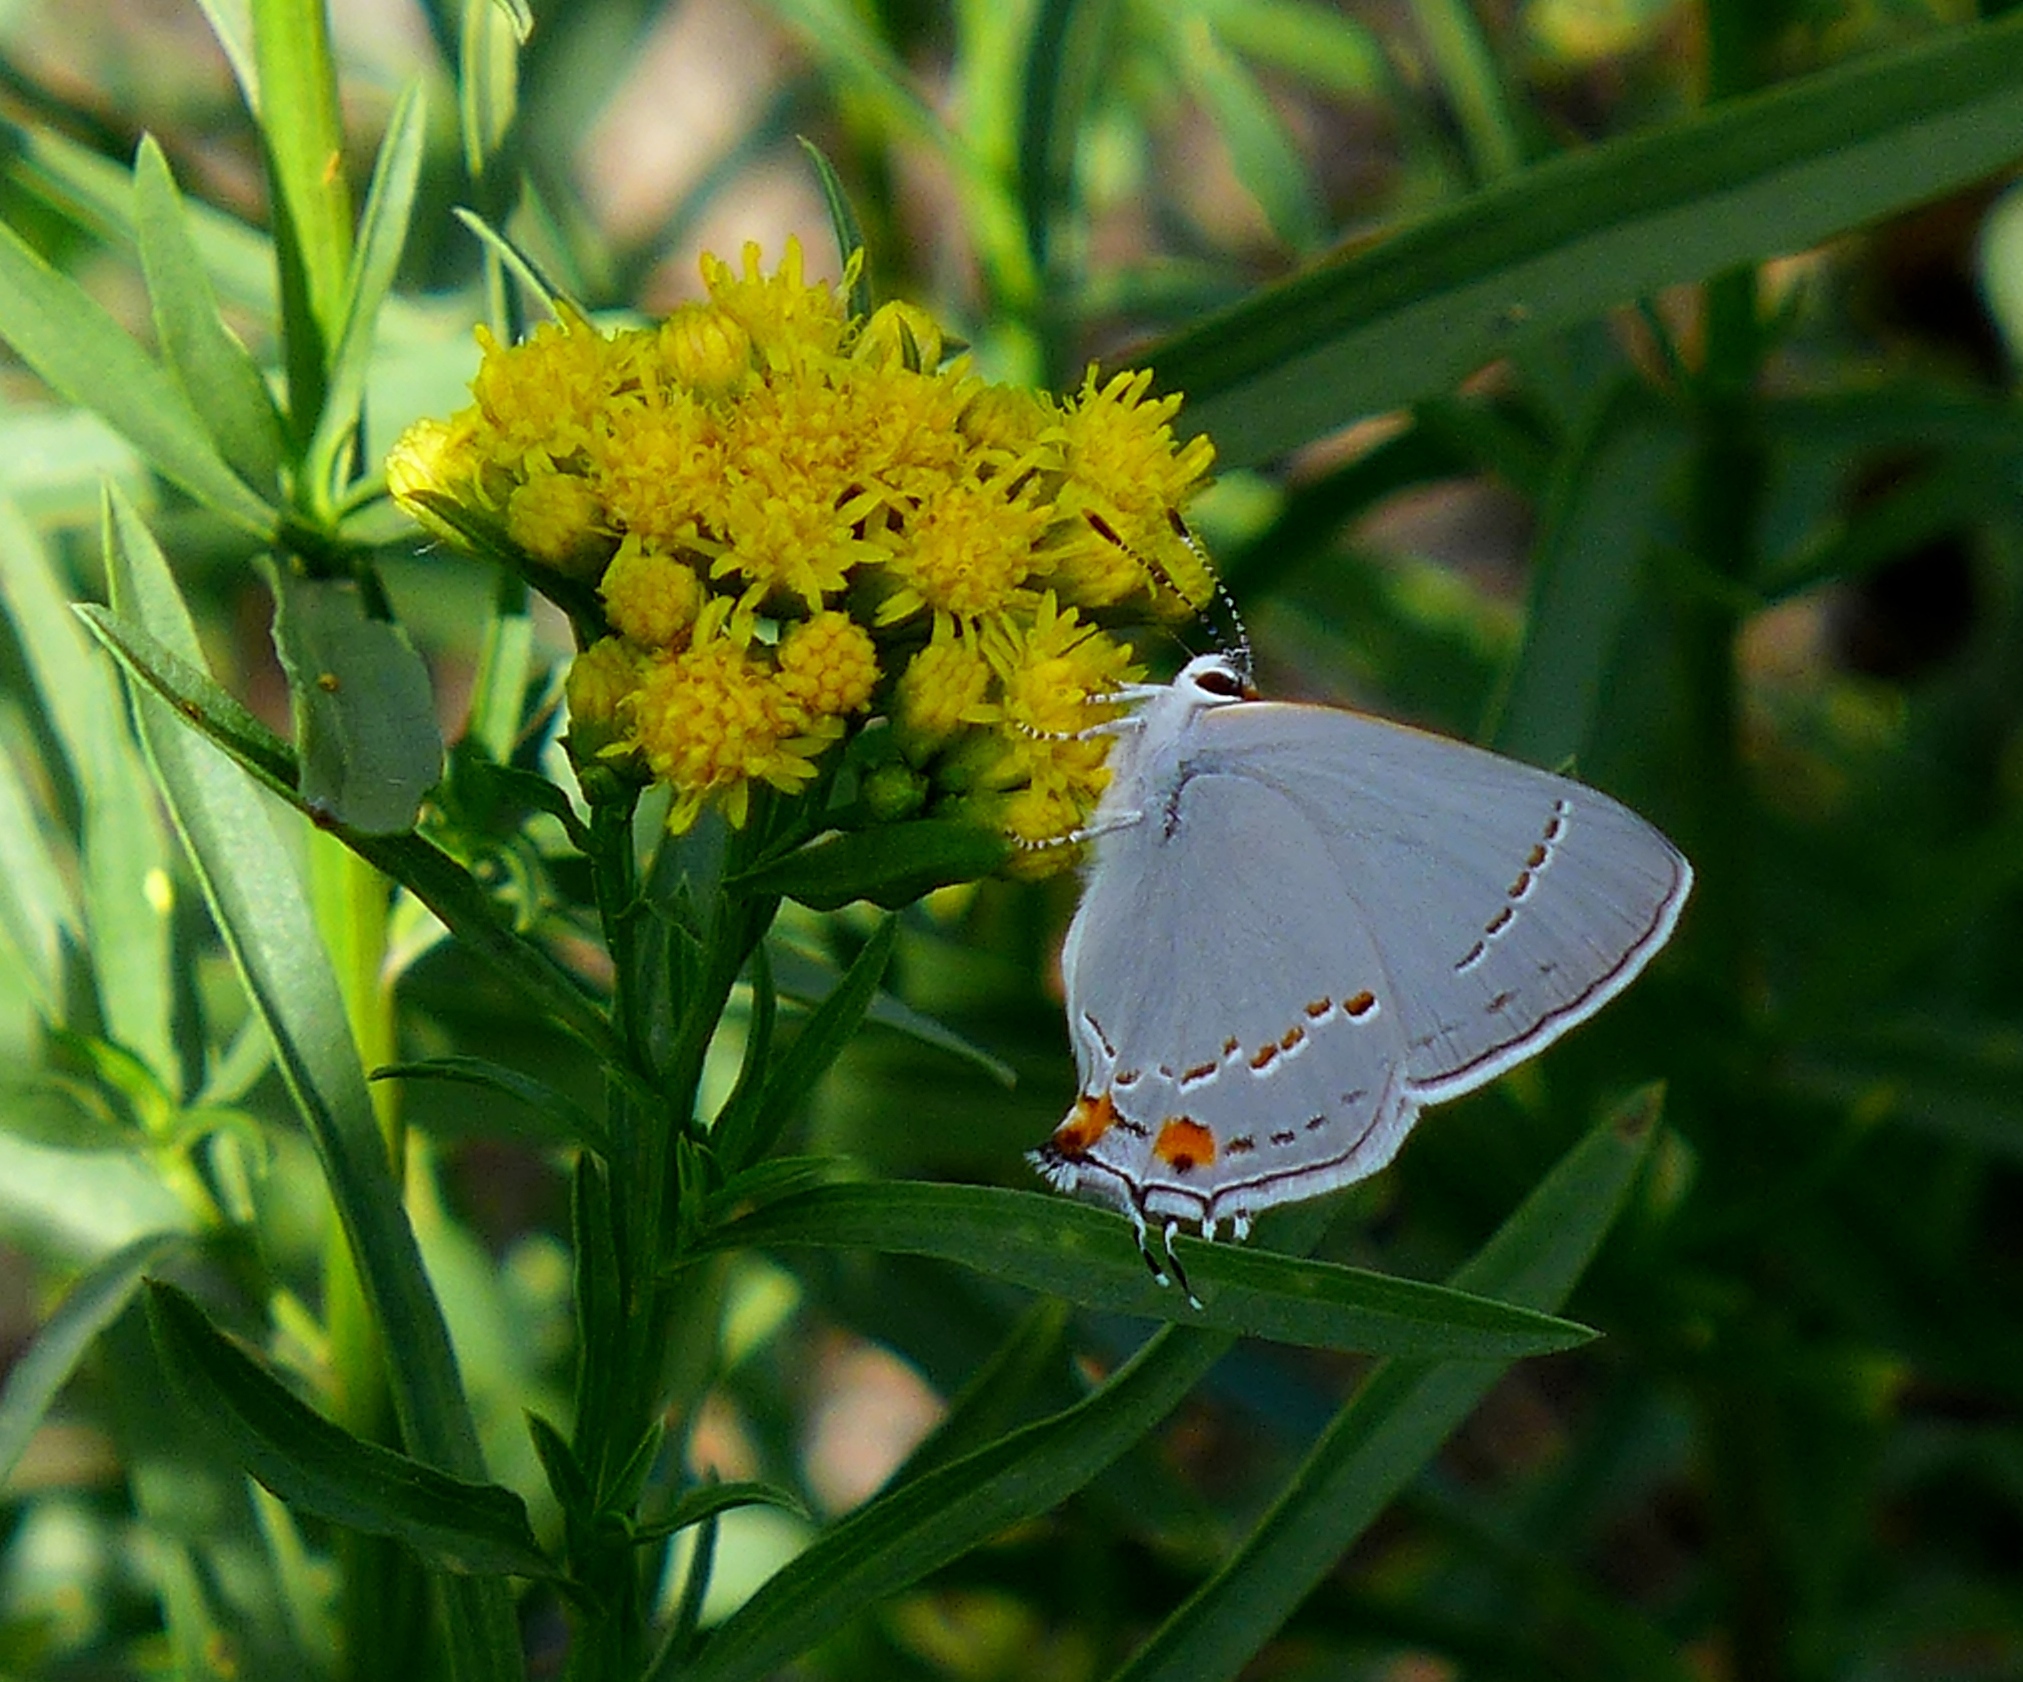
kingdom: Animalia
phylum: Arthropoda
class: Insecta
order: Lepidoptera
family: Lycaenidae
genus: Strymon
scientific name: Strymon melinus
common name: Gray hairstreak
